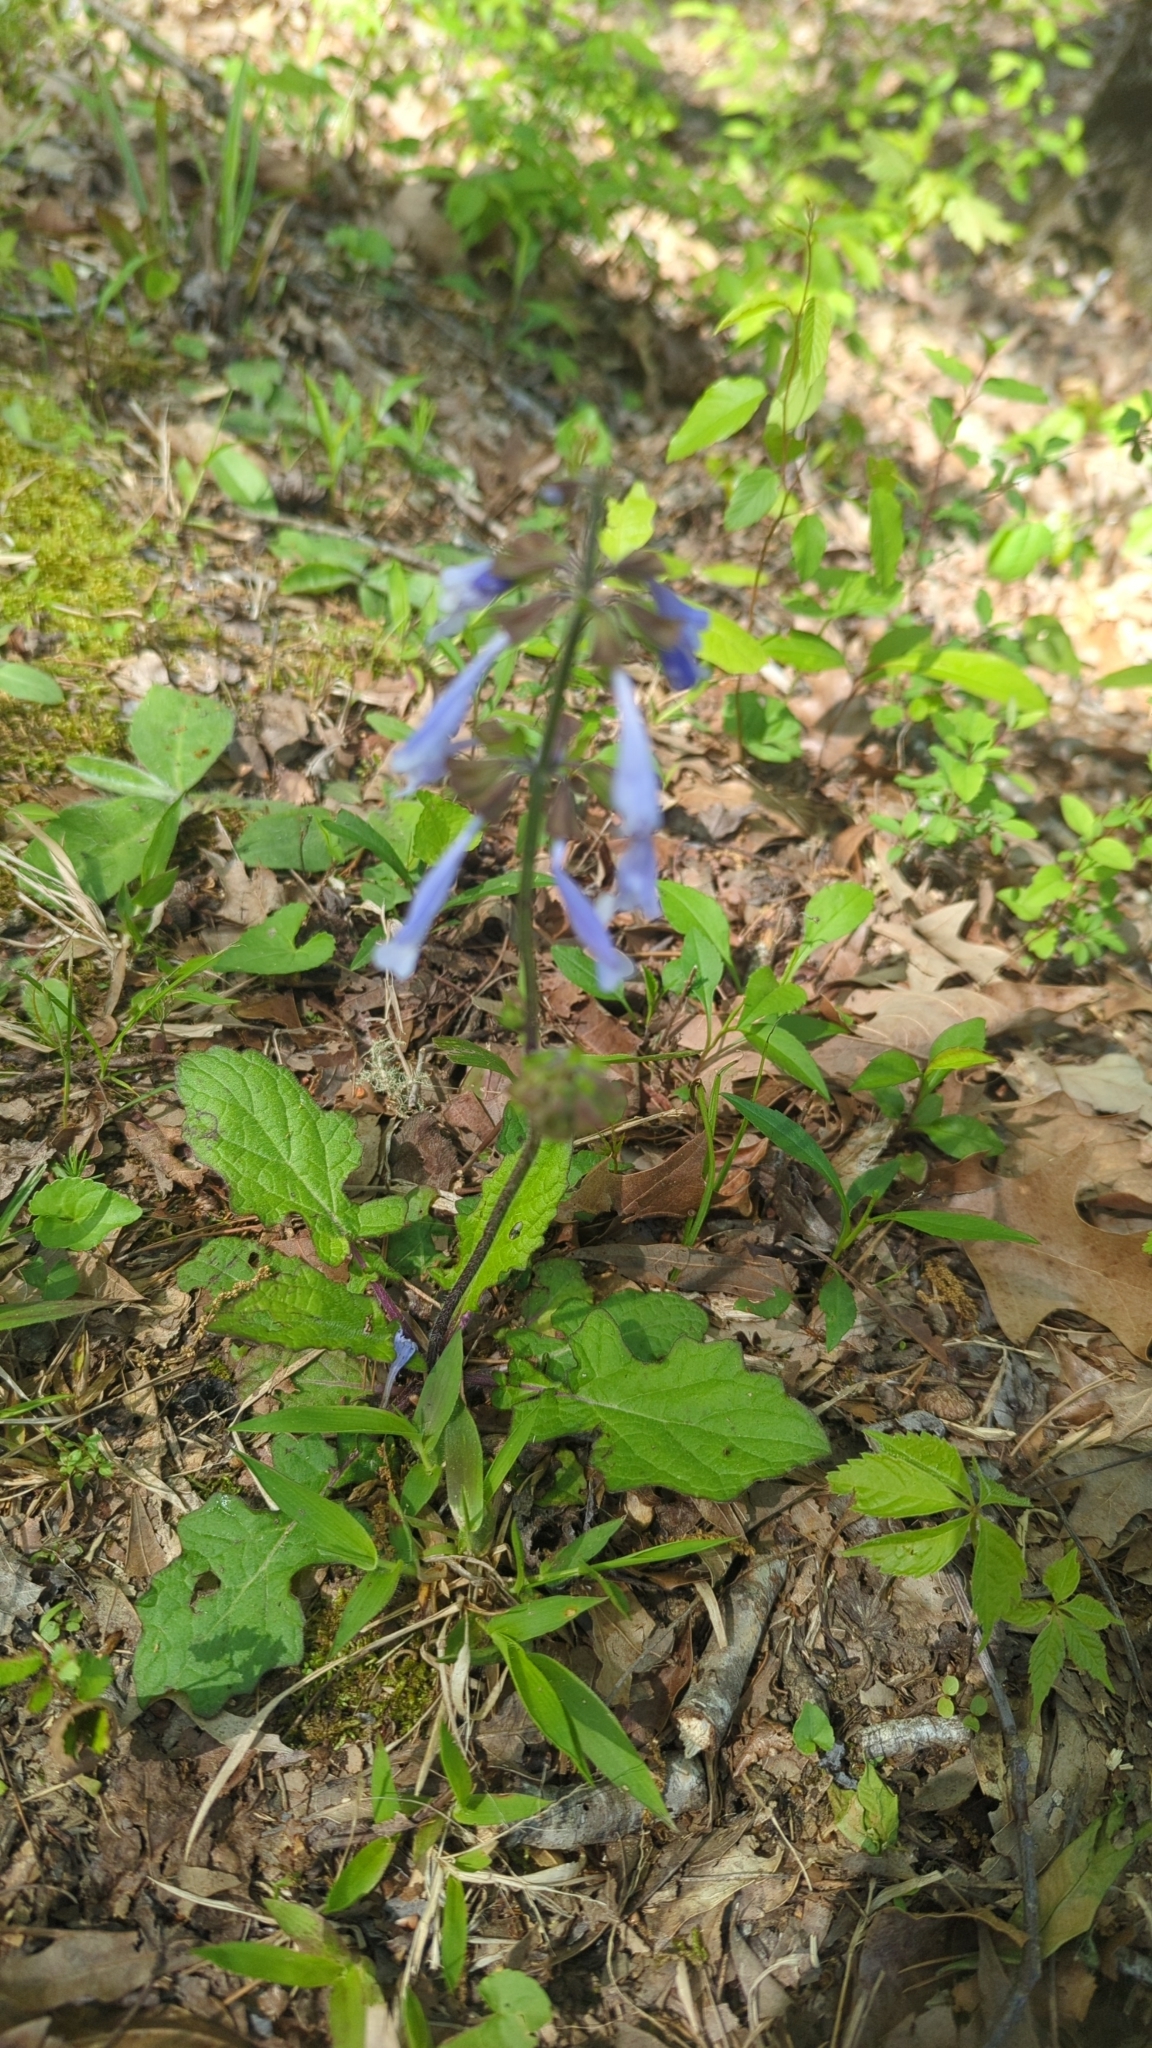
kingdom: Plantae
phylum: Tracheophyta
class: Magnoliopsida
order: Lamiales
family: Lamiaceae
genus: Salvia
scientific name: Salvia lyrata
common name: Cancerweed
